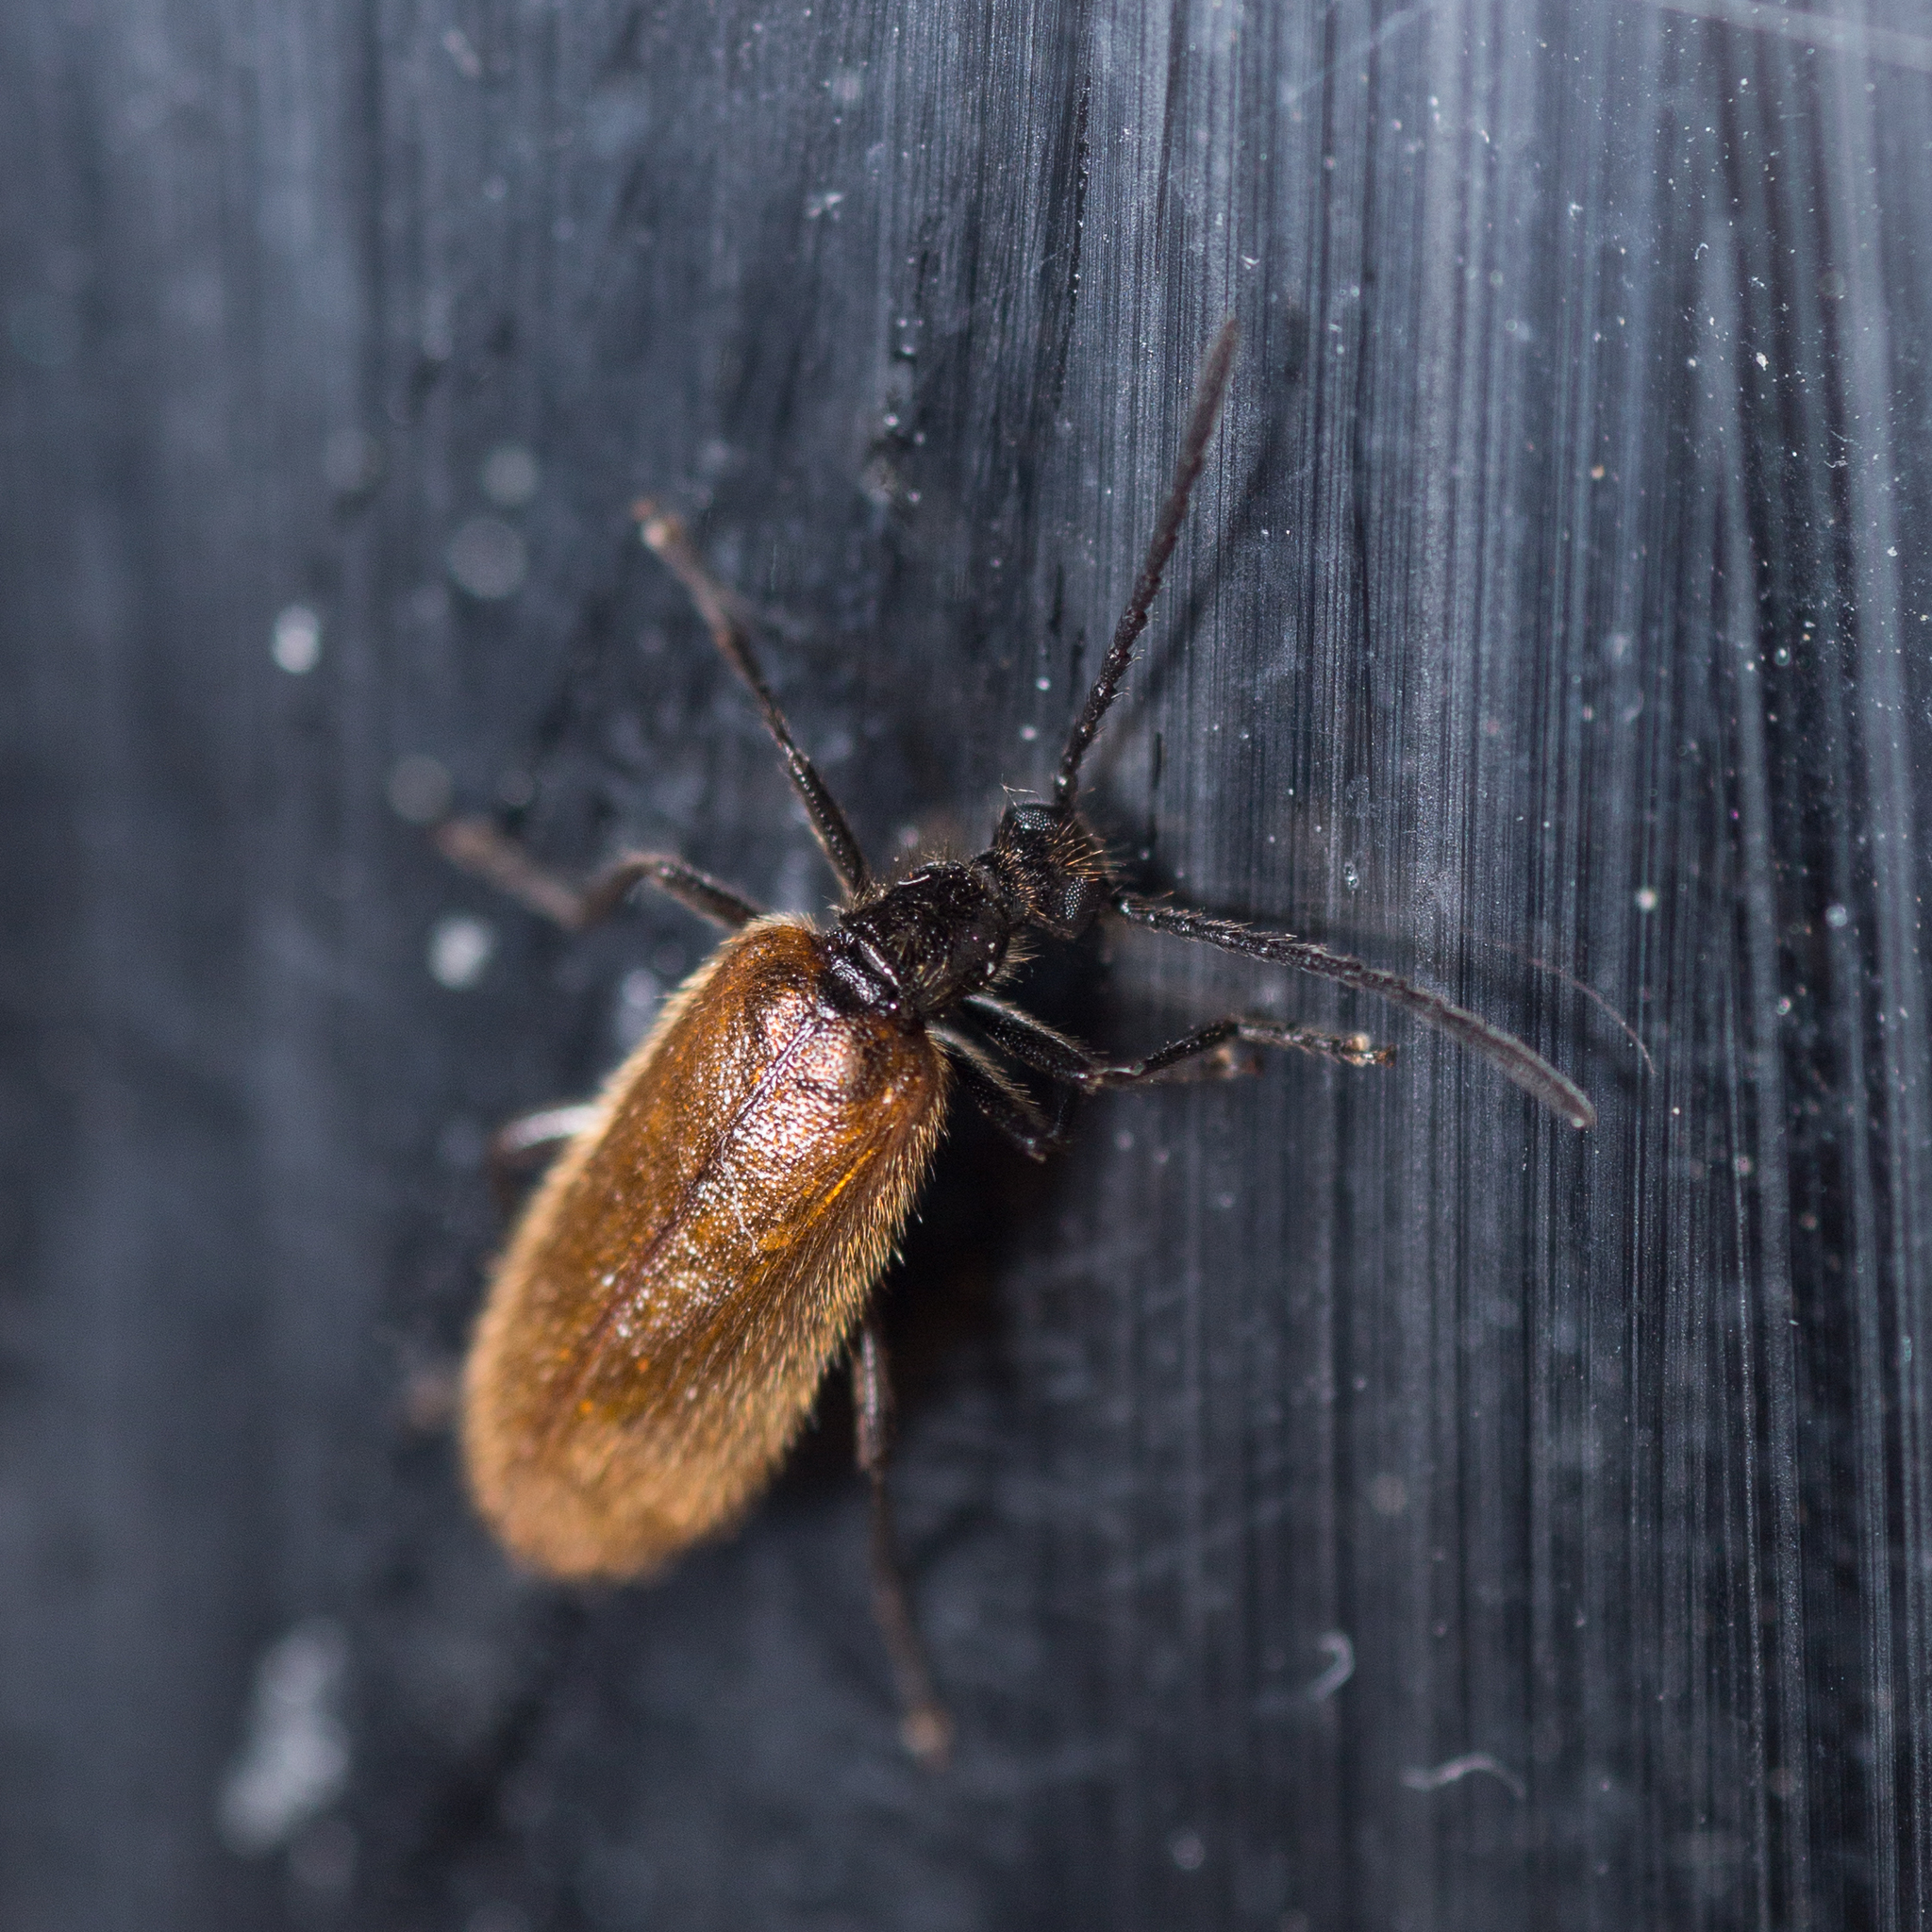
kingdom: Animalia
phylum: Arthropoda
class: Insecta
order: Coleoptera
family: Tenebrionidae
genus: Lagria
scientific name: Lagria hirta
